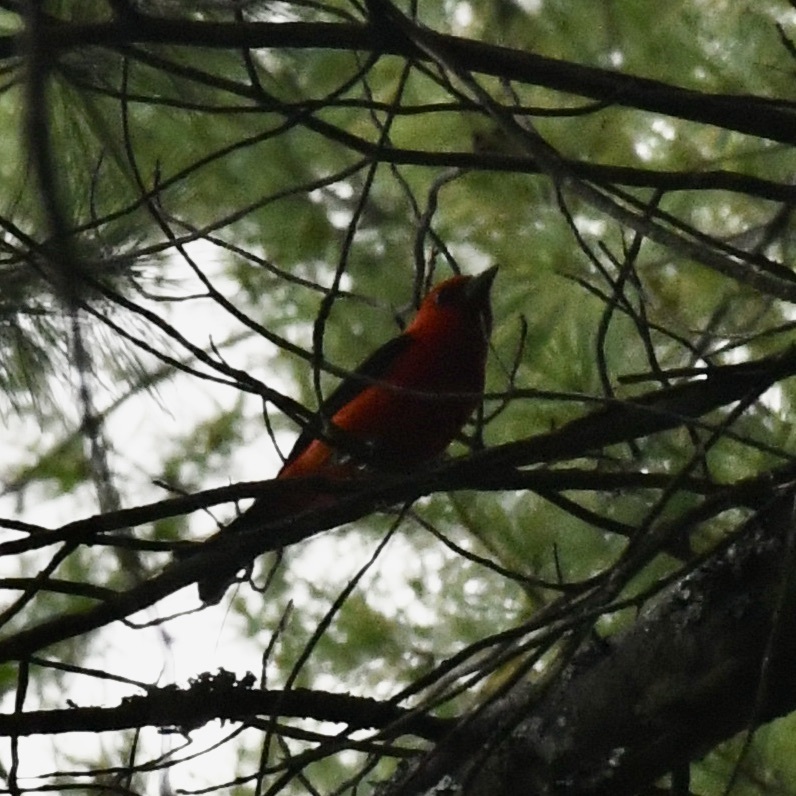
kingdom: Animalia
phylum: Chordata
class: Aves
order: Passeriformes
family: Cardinalidae
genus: Piranga
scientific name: Piranga olivacea
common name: Scarlet tanager
